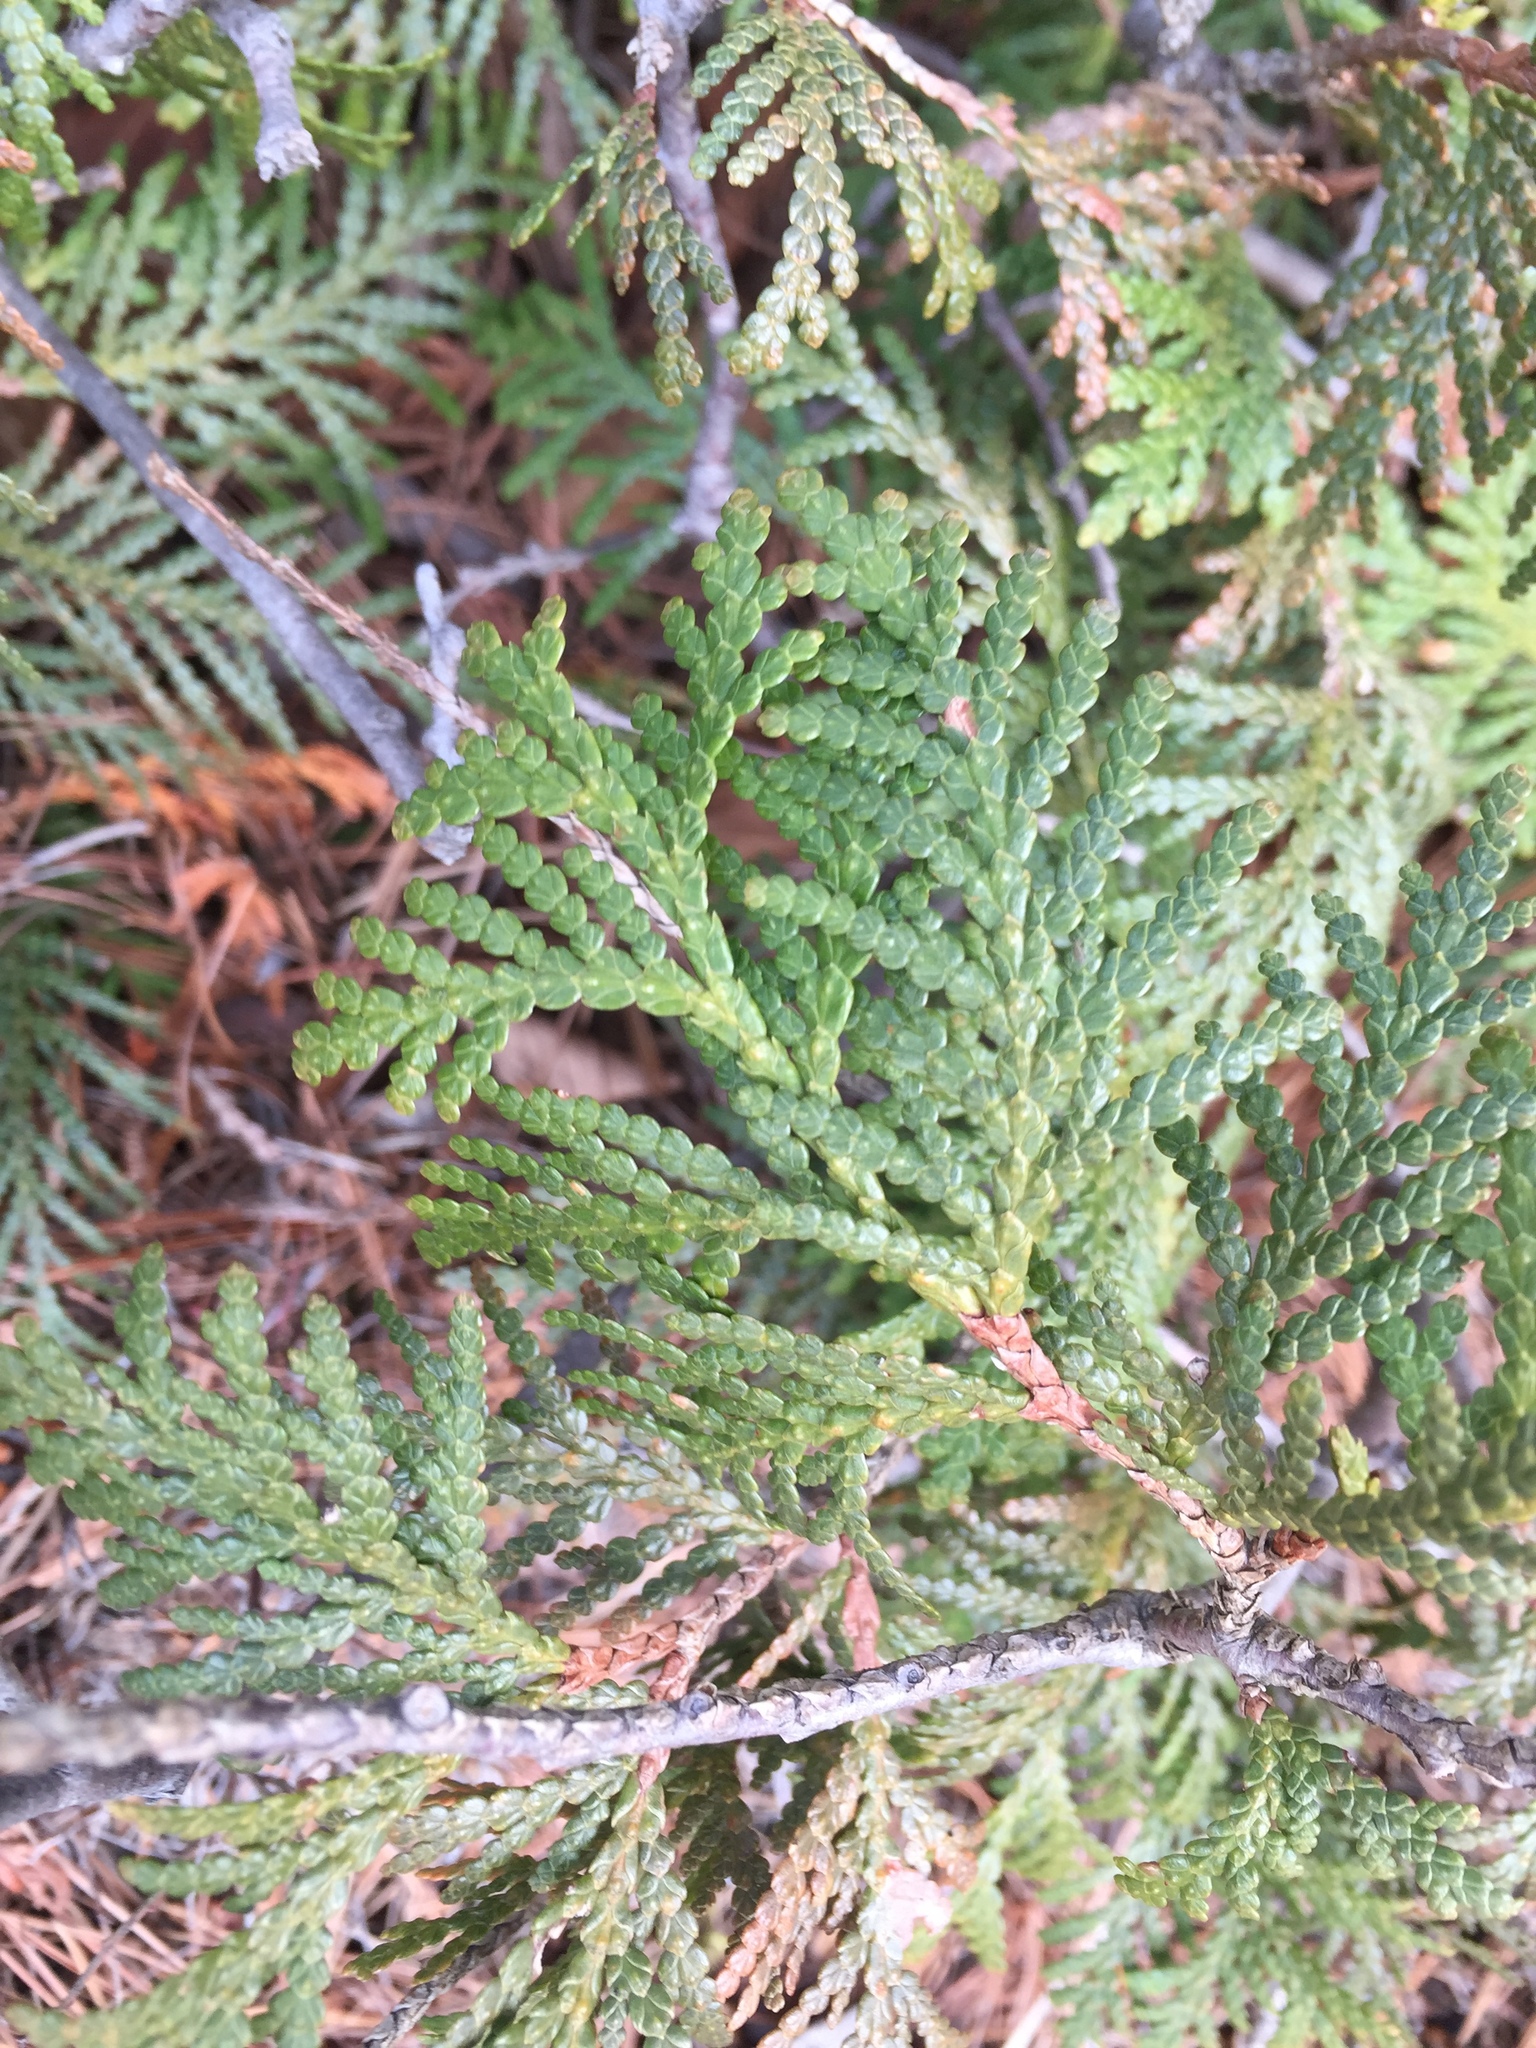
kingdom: Plantae
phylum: Tracheophyta
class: Pinopsida
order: Pinales
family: Cupressaceae
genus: Thuja
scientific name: Thuja occidentalis
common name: Northern white-cedar
